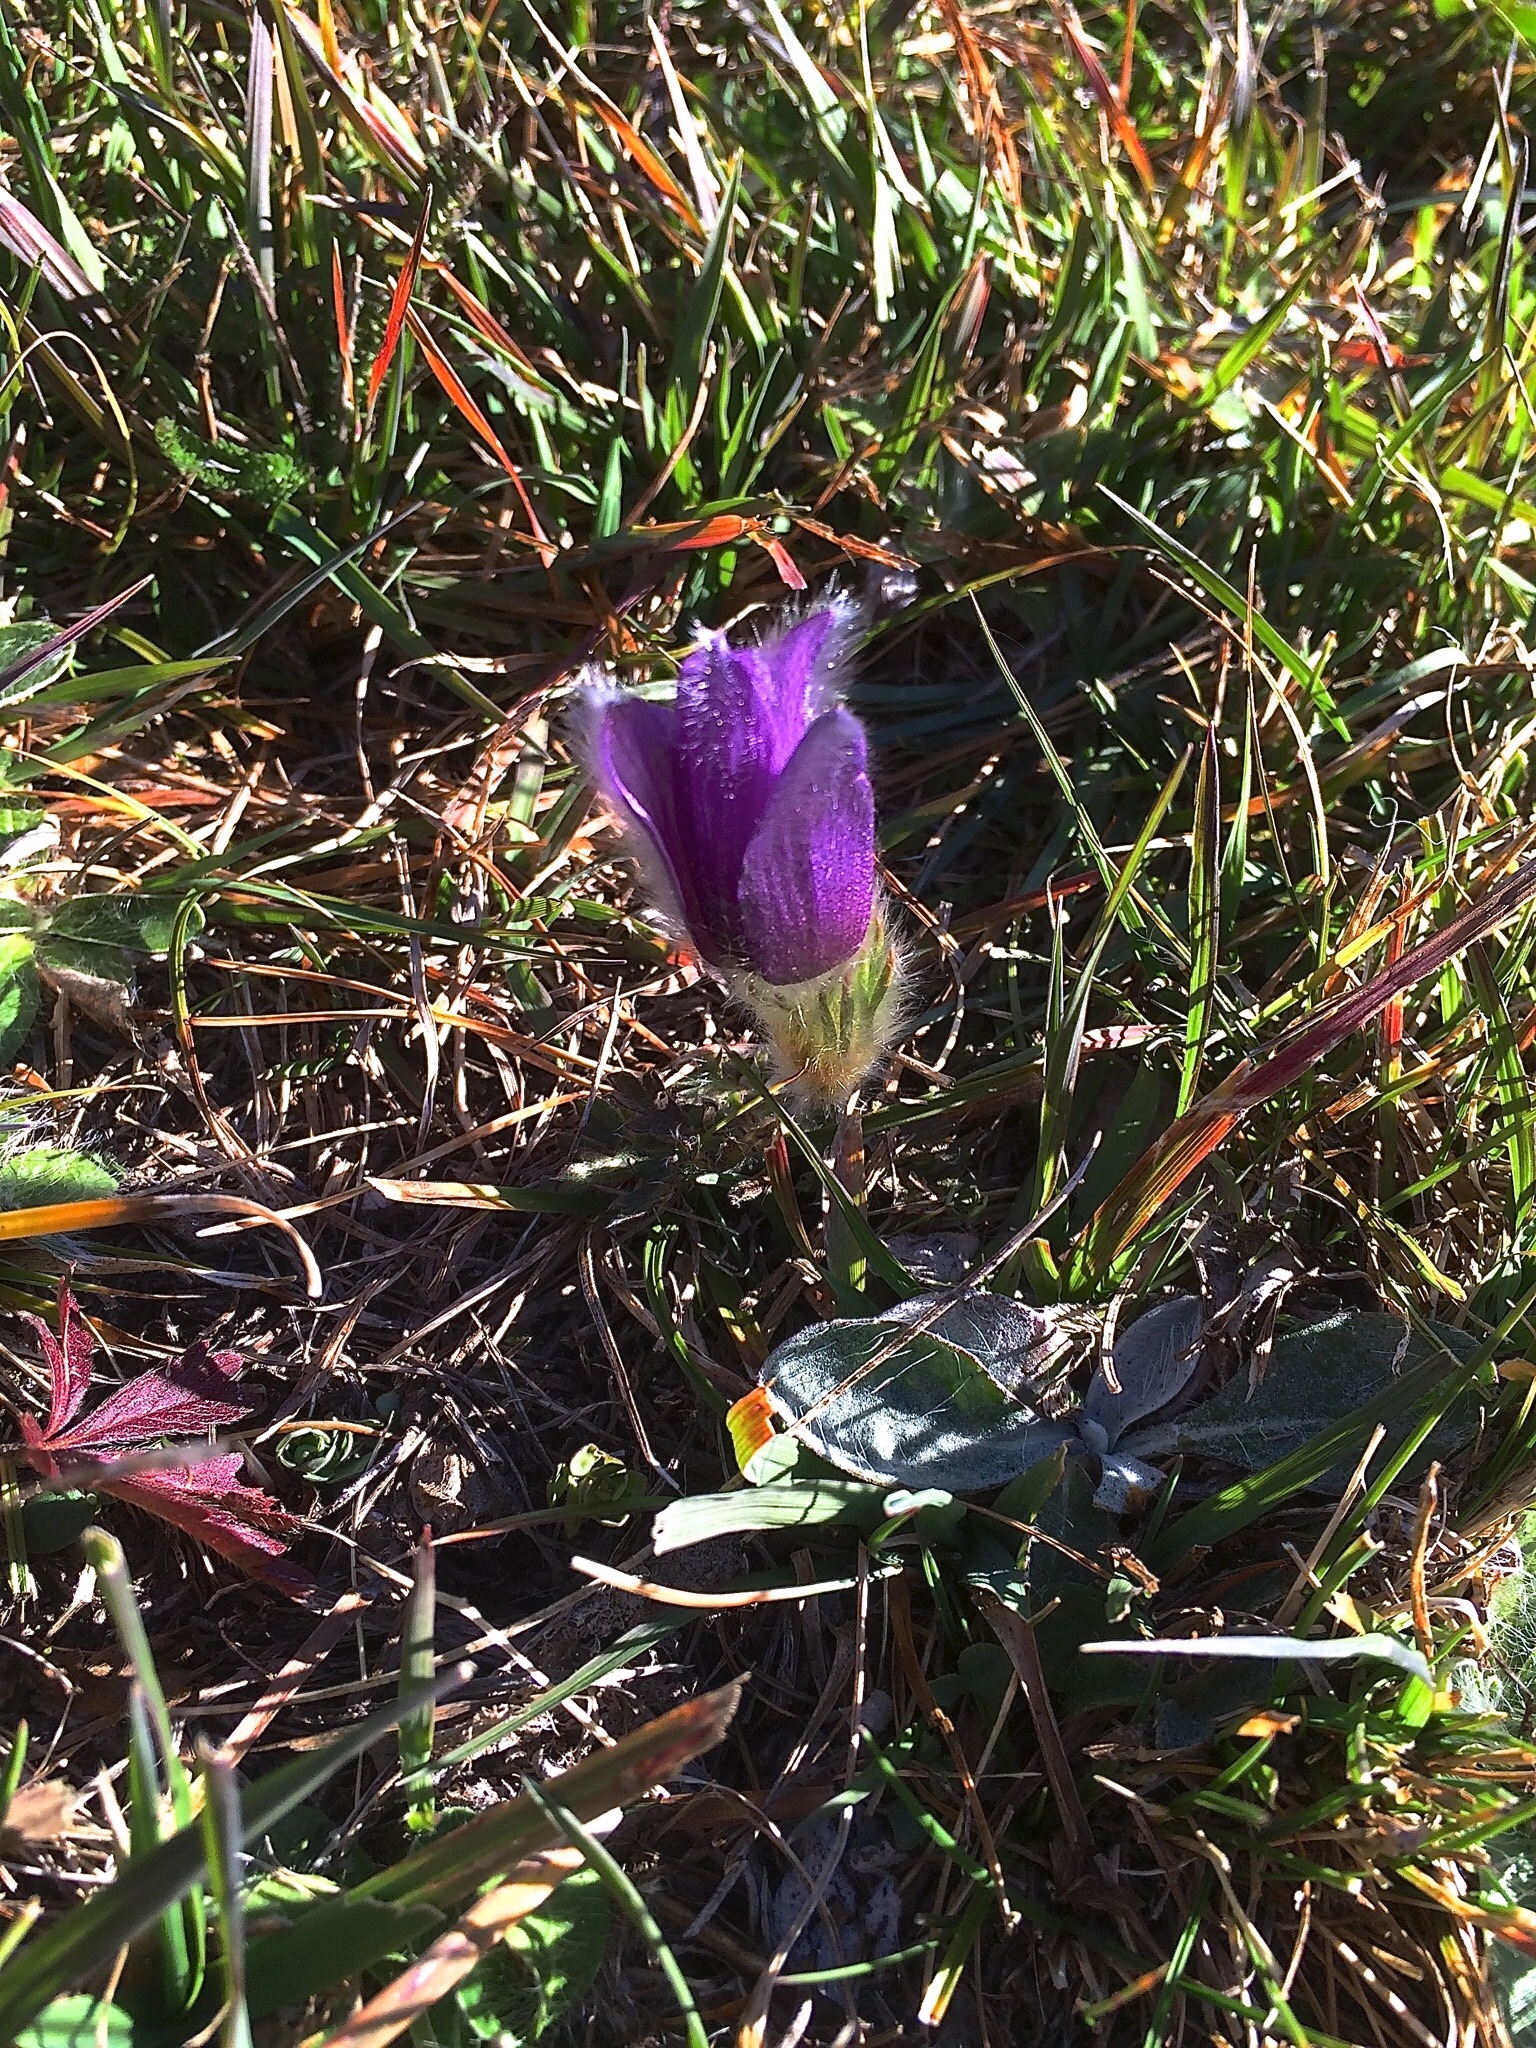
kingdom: Plantae
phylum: Tracheophyta
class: Magnoliopsida
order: Ranunculales
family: Ranunculaceae
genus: Pulsatilla
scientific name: Pulsatilla halleri
